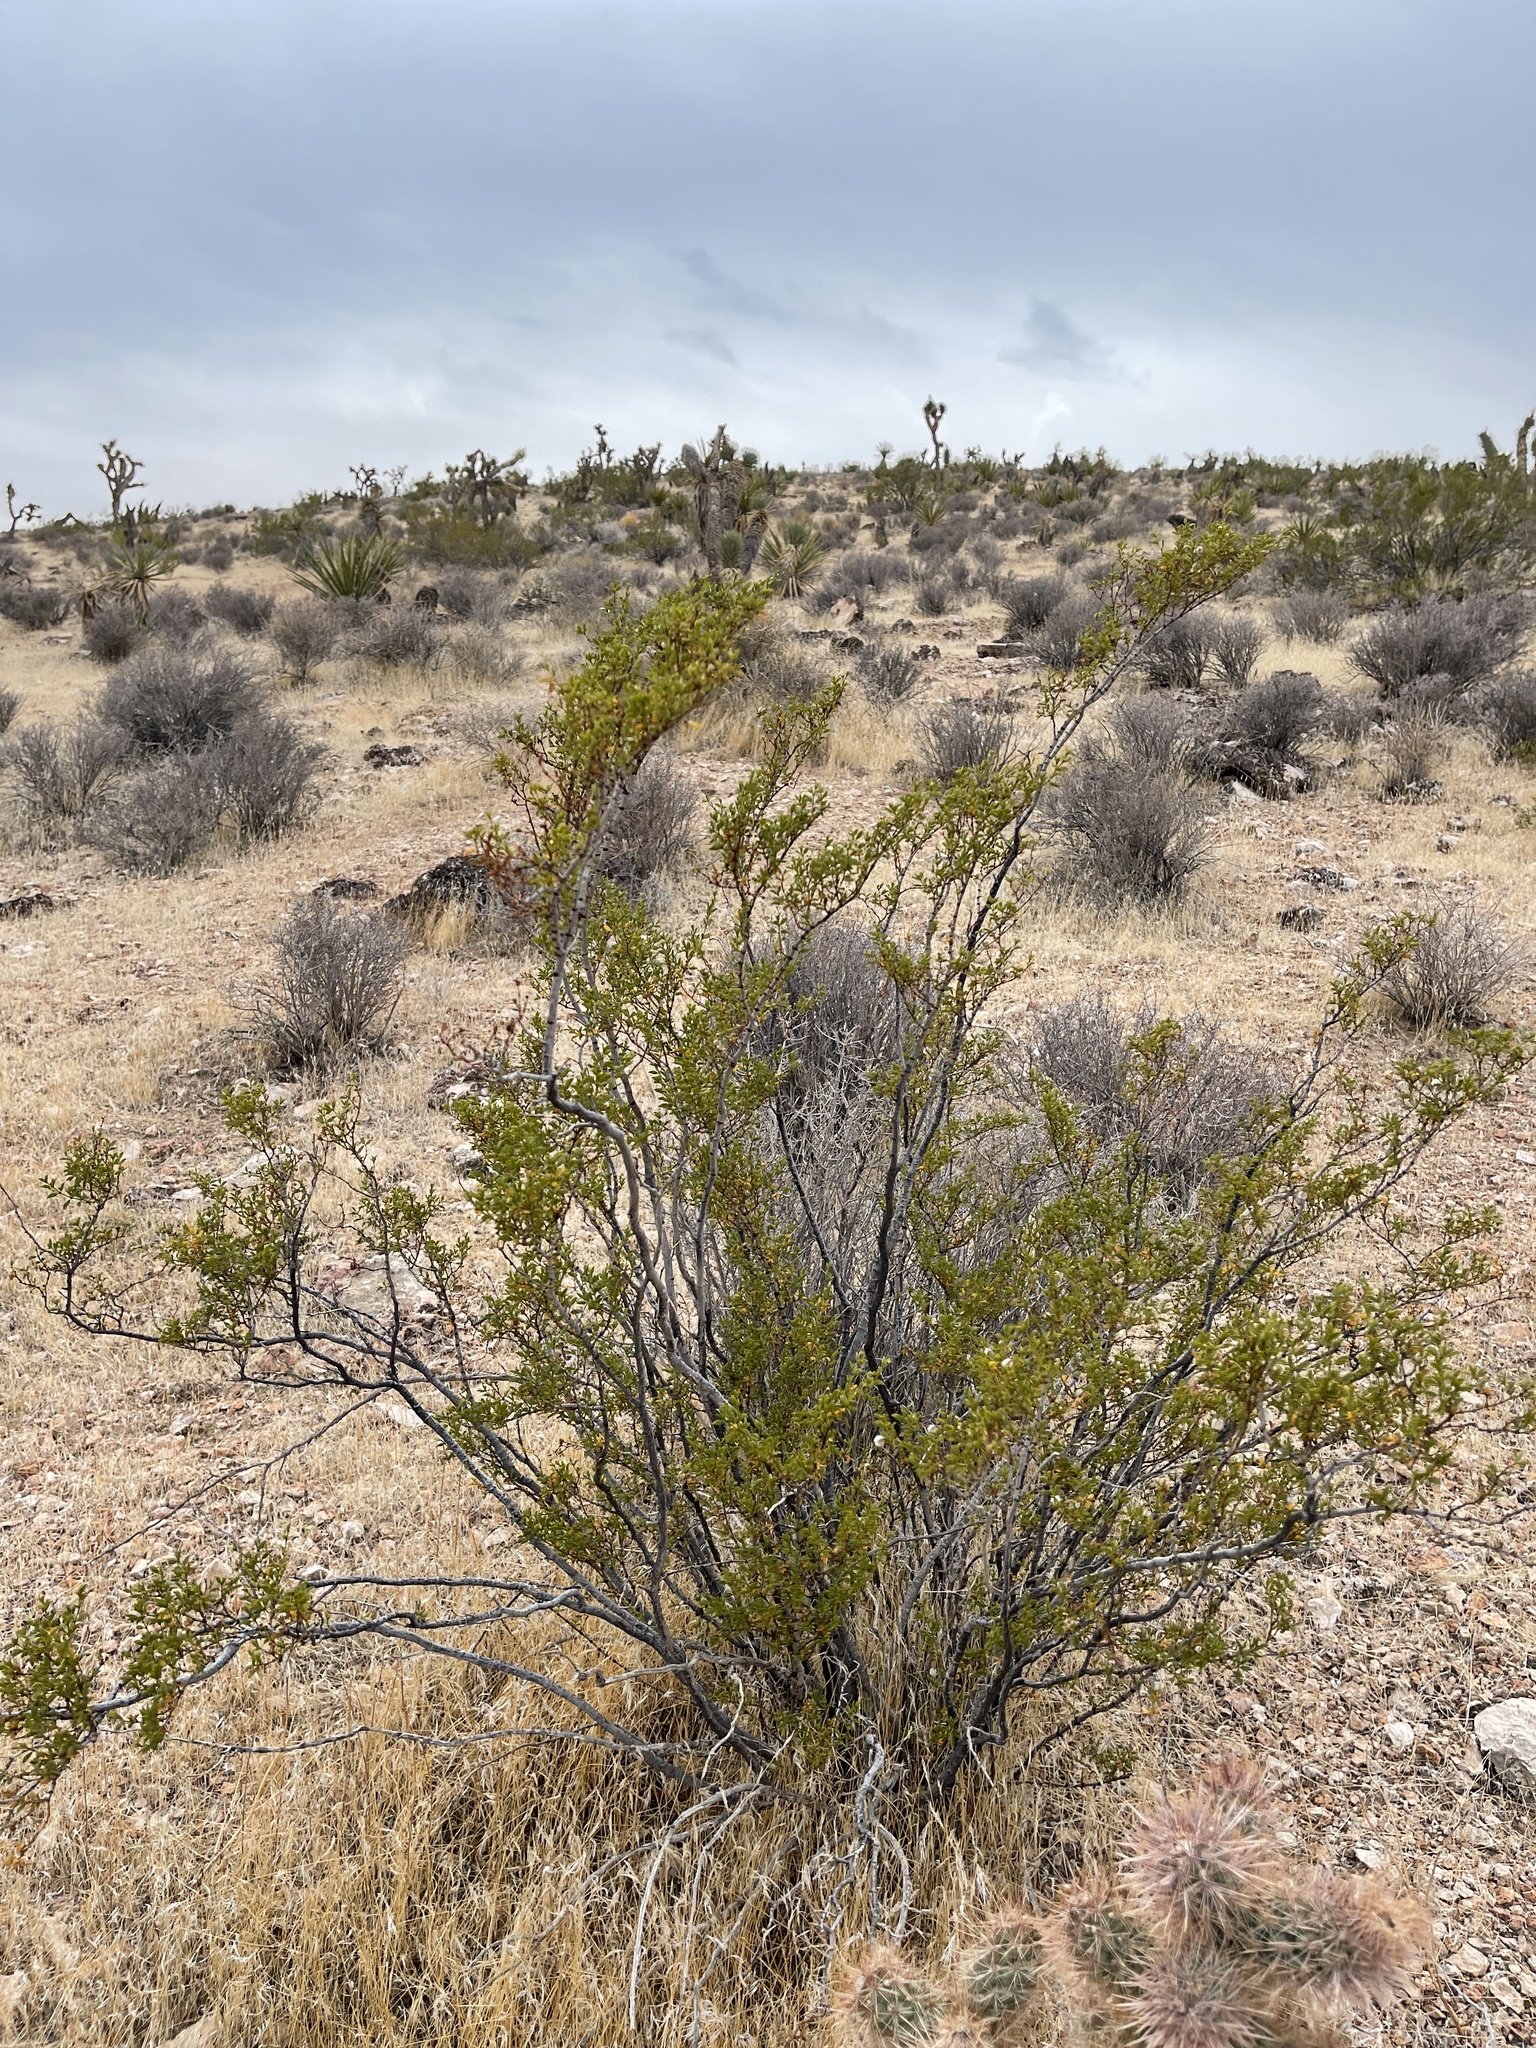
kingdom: Plantae
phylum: Tracheophyta
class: Magnoliopsida
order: Zygophyllales
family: Zygophyllaceae
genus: Larrea
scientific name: Larrea tridentata
